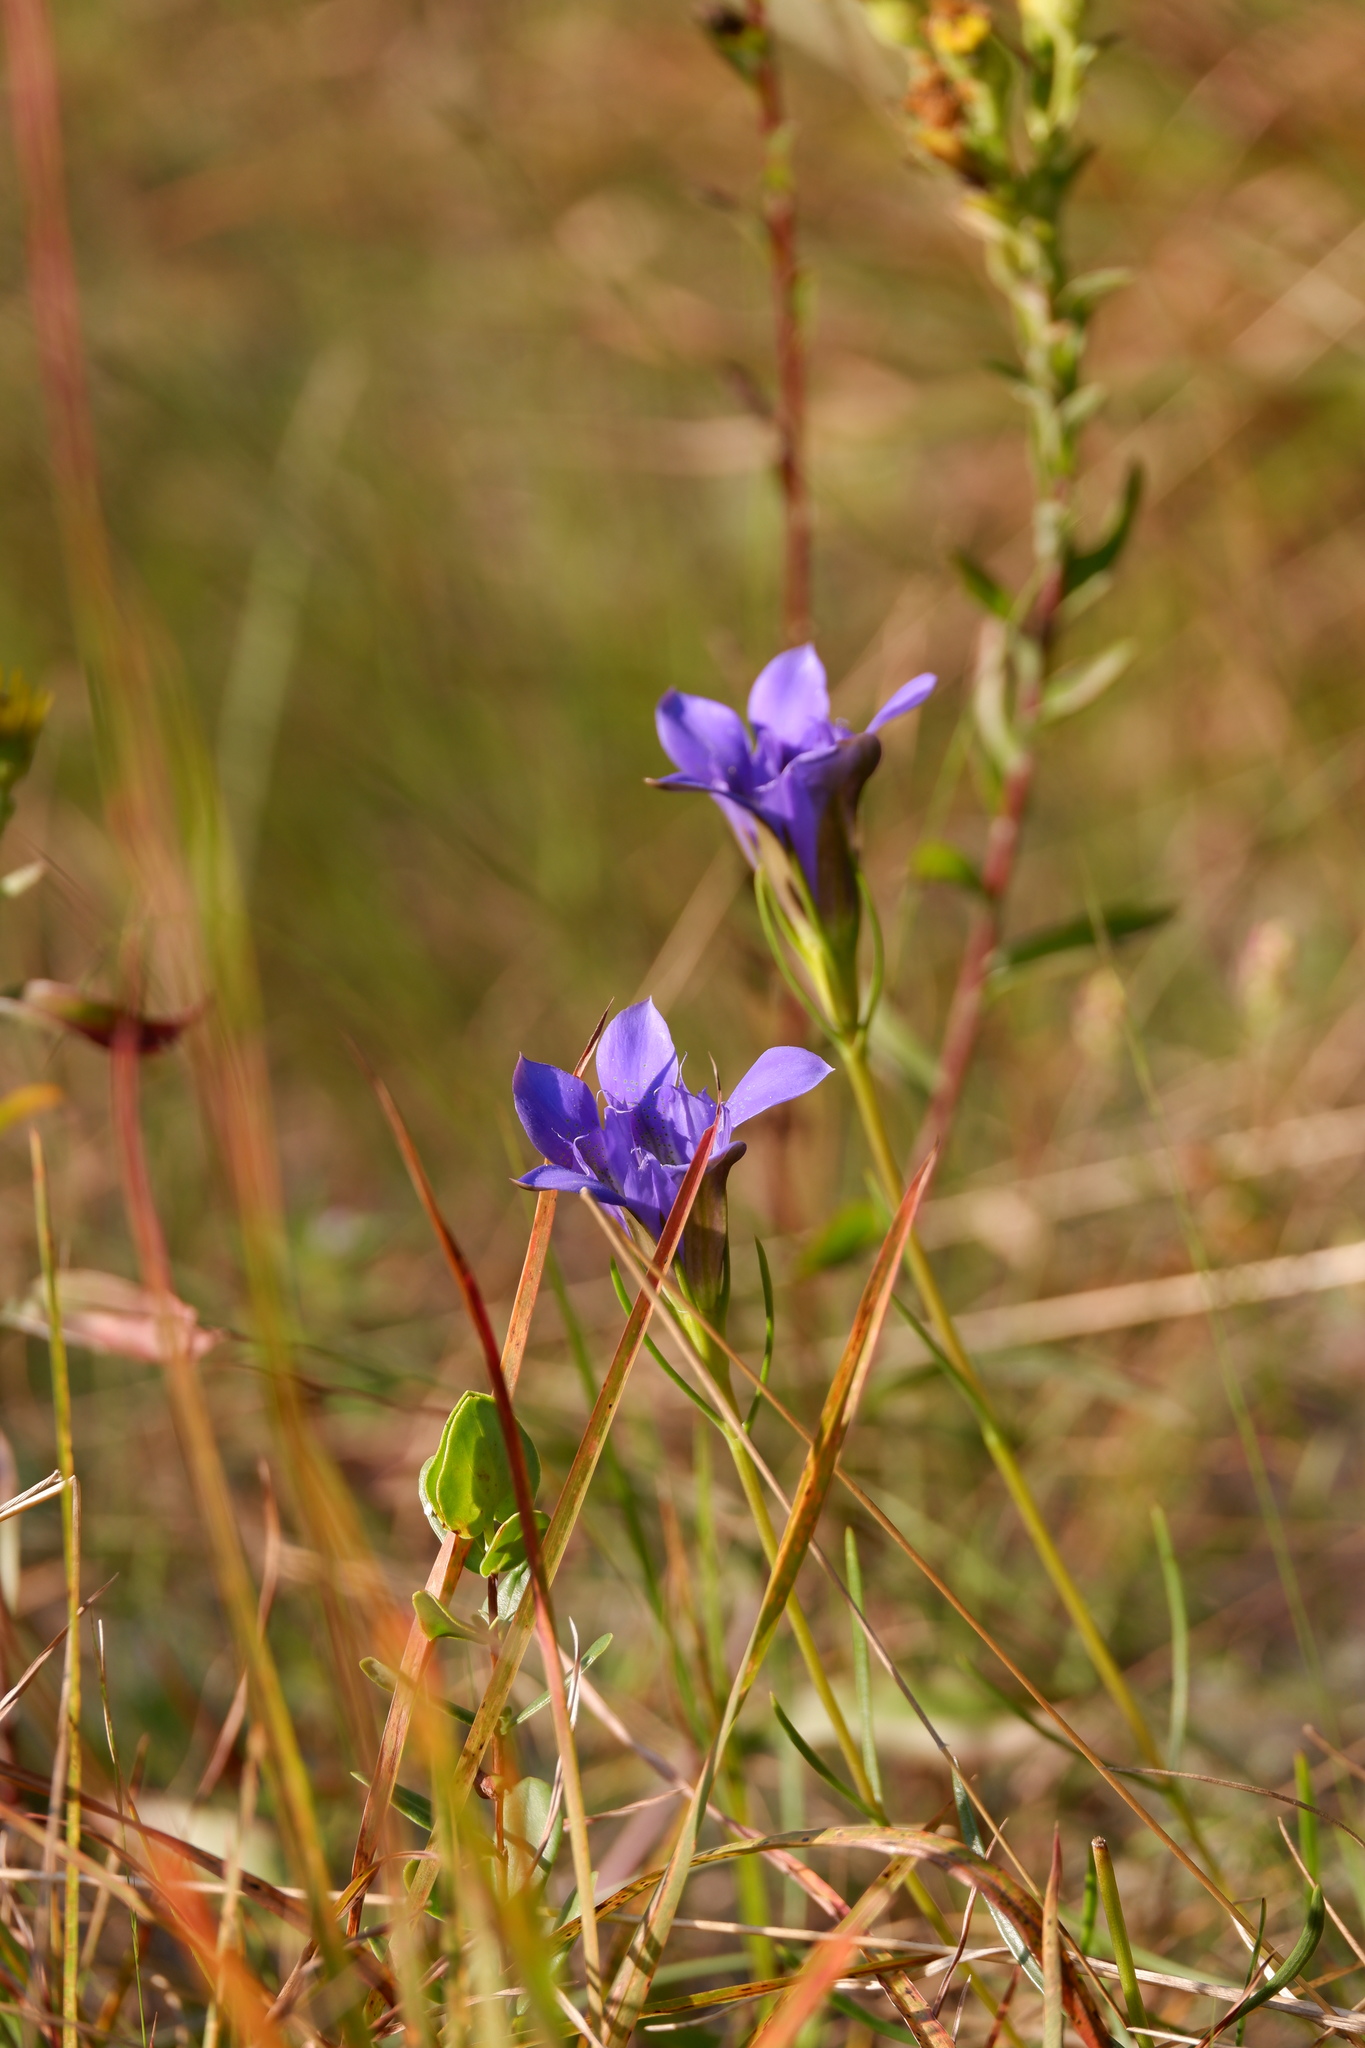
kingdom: Plantae
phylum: Tracheophyta
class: Magnoliopsida
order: Gentianales
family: Gentianaceae
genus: Gentiana
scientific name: Gentiana autumnalis
